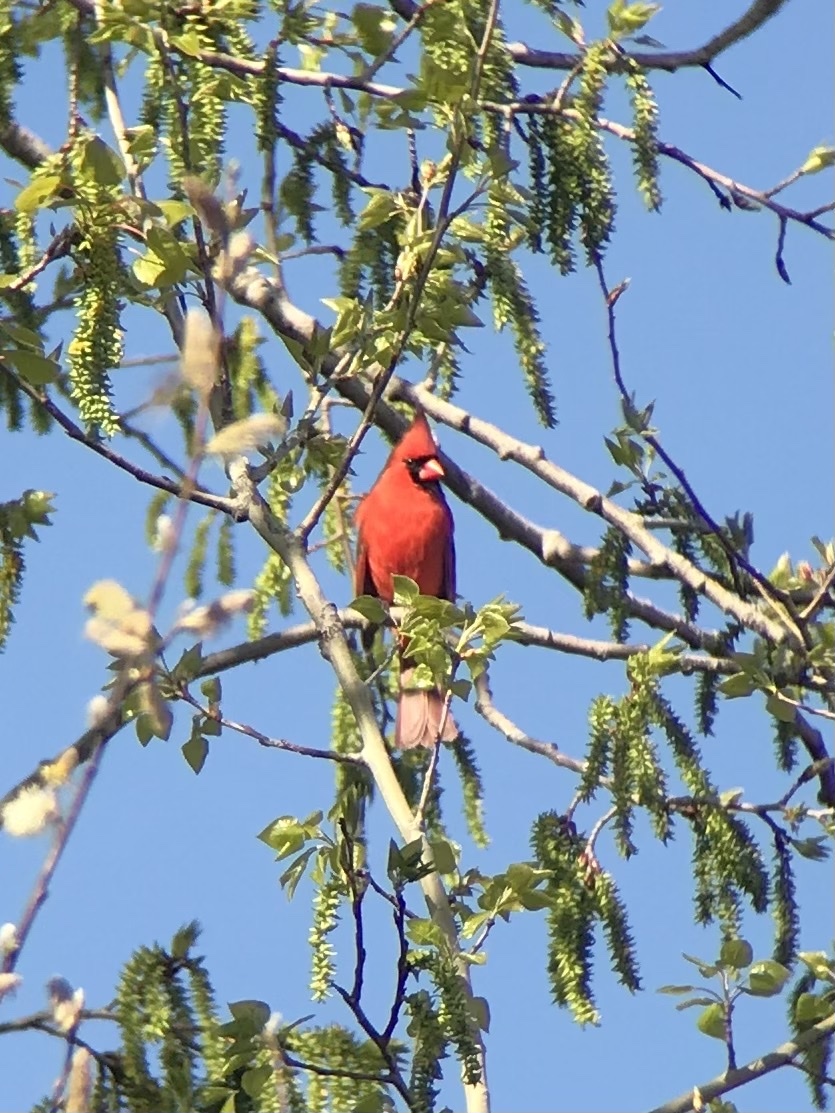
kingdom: Animalia
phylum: Chordata
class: Aves
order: Passeriformes
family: Cardinalidae
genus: Cardinalis
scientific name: Cardinalis cardinalis
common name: Northern cardinal
